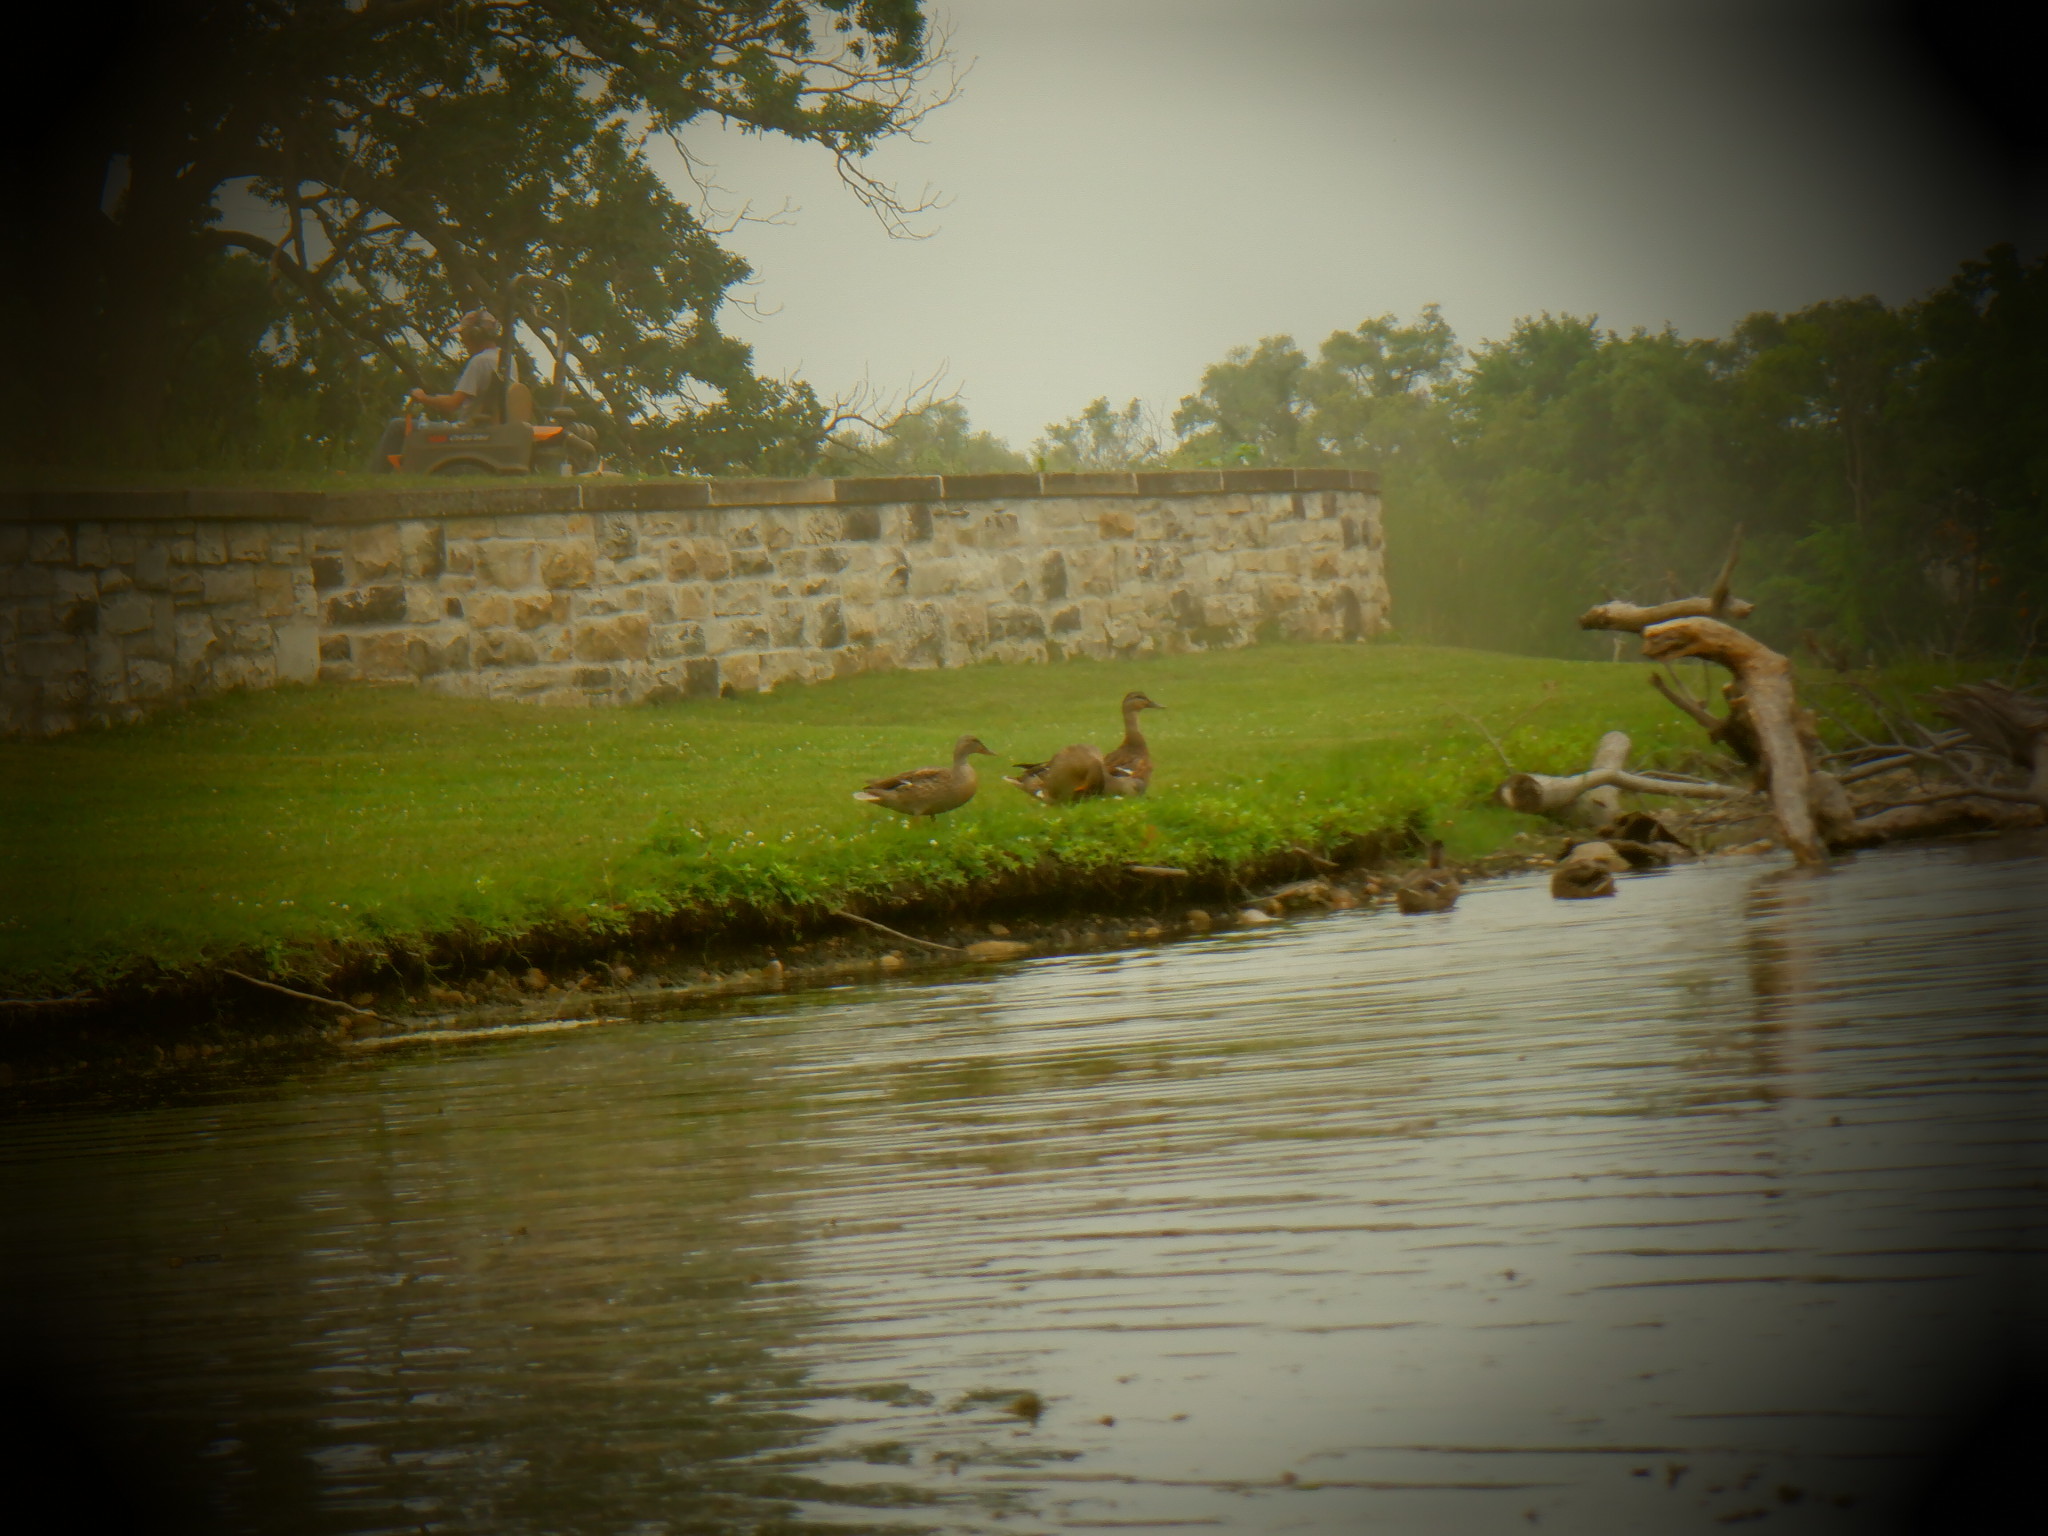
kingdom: Animalia
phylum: Chordata
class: Aves
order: Anseriformes
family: Anatidae
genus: Anas
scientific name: Anas platyrhynchos
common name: Mallard
